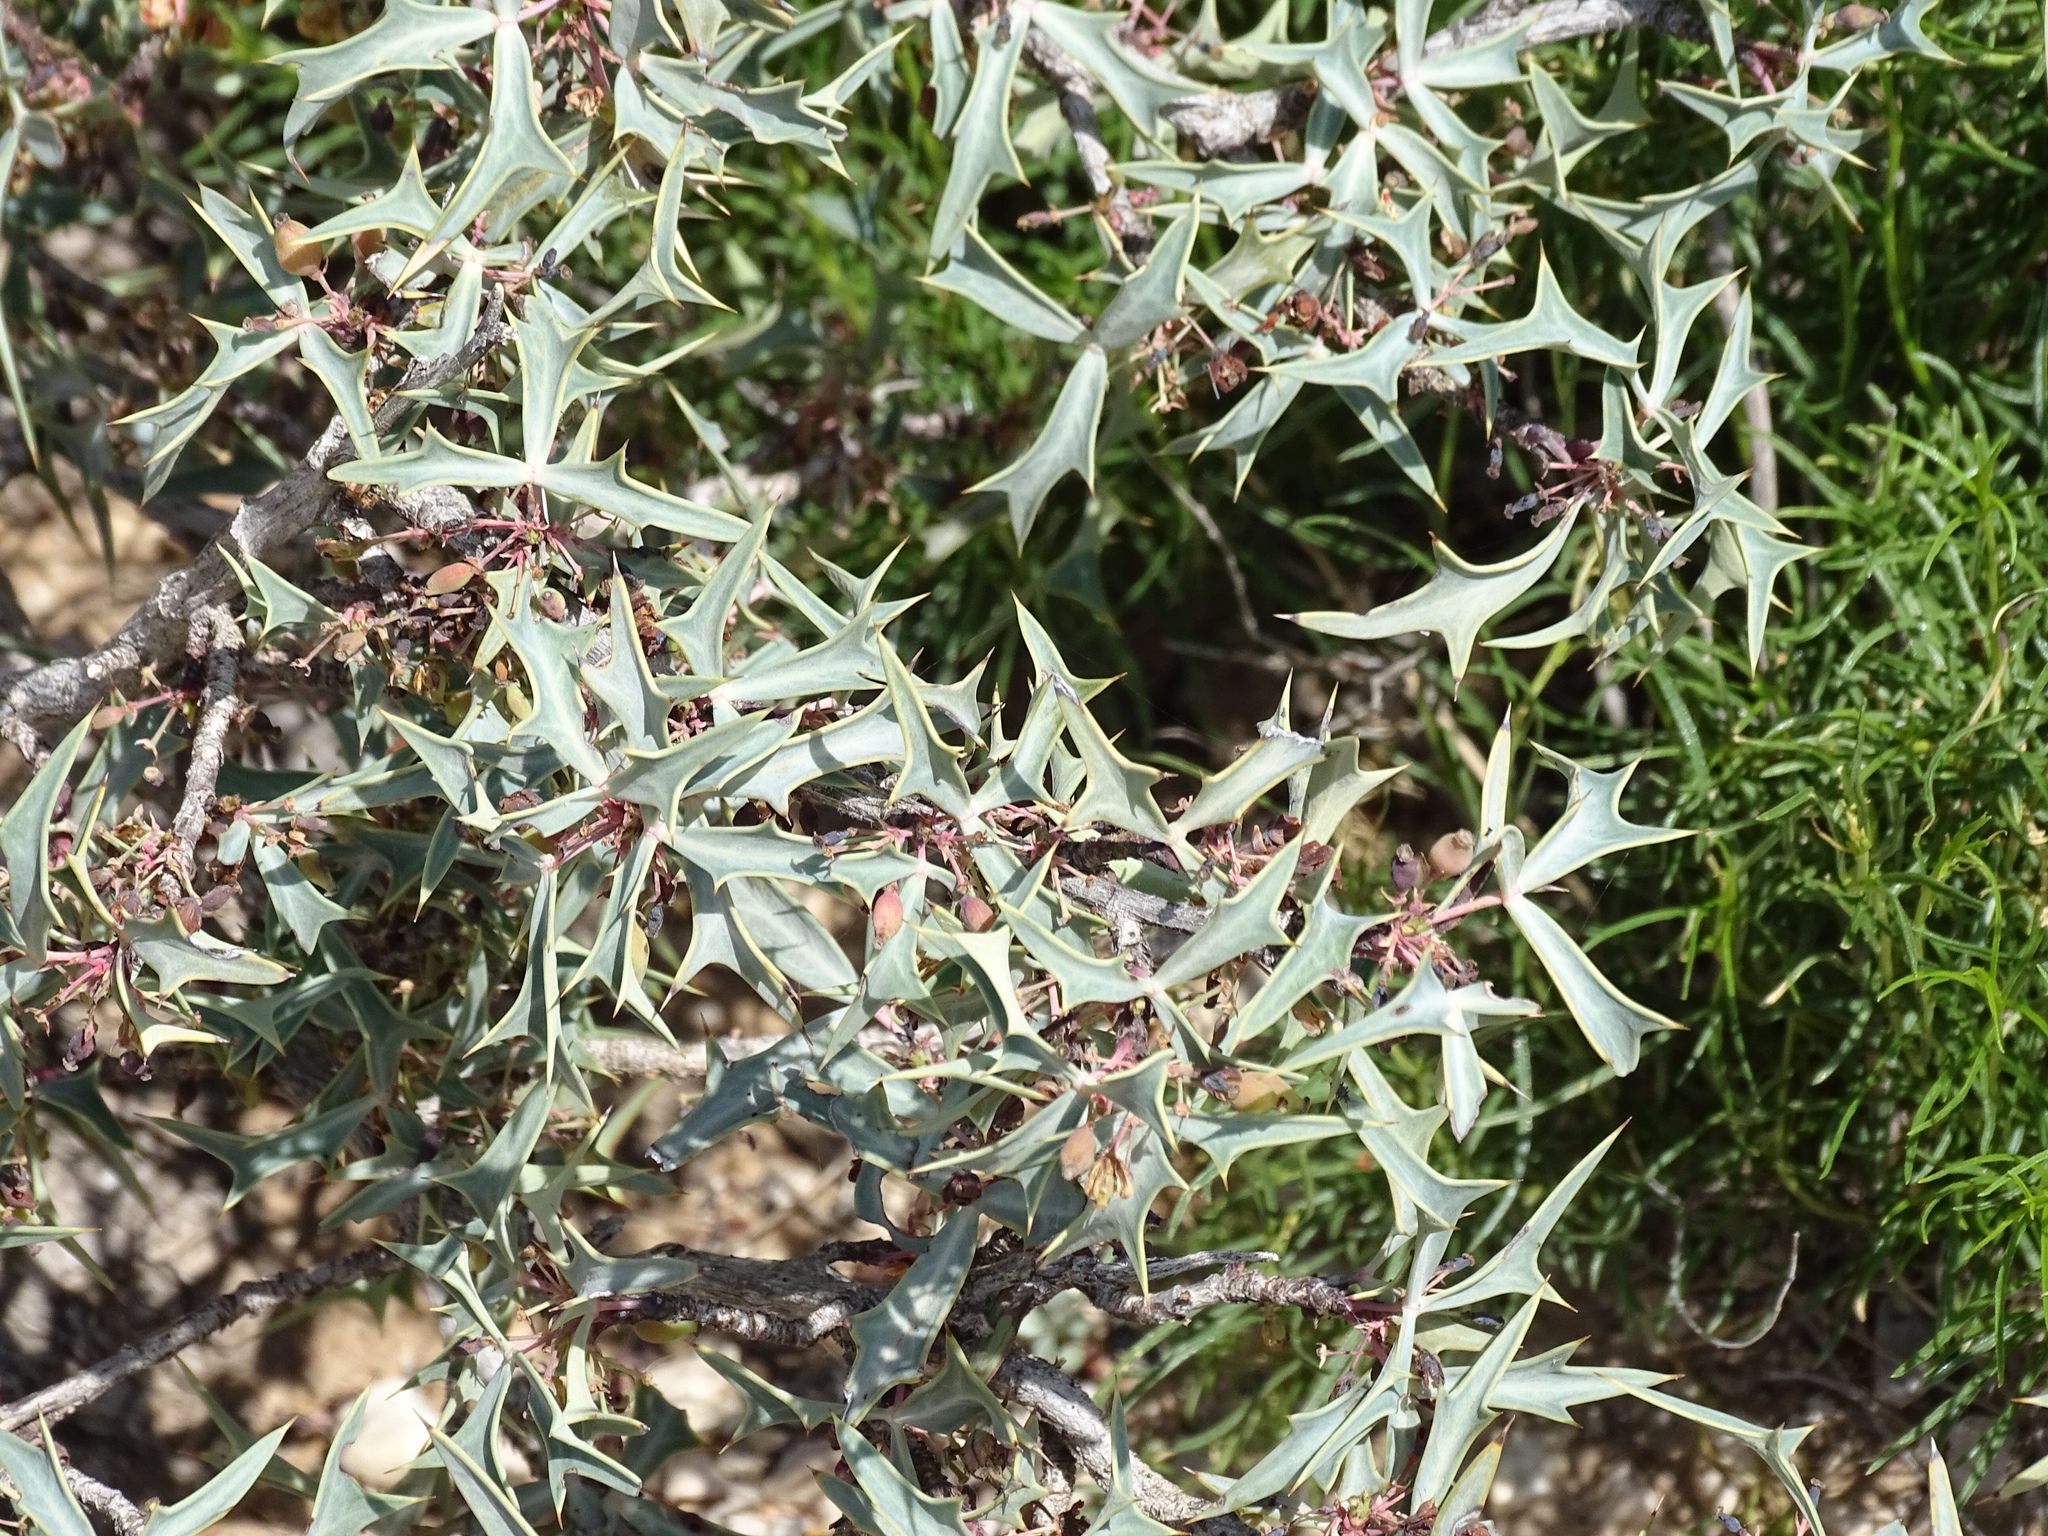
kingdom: Plantae
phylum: Tracheophyta
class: Magnoliopsida
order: Ranunculales
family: Berberidaceae
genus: Alloberberis
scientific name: Alloberberis trifoliolata
